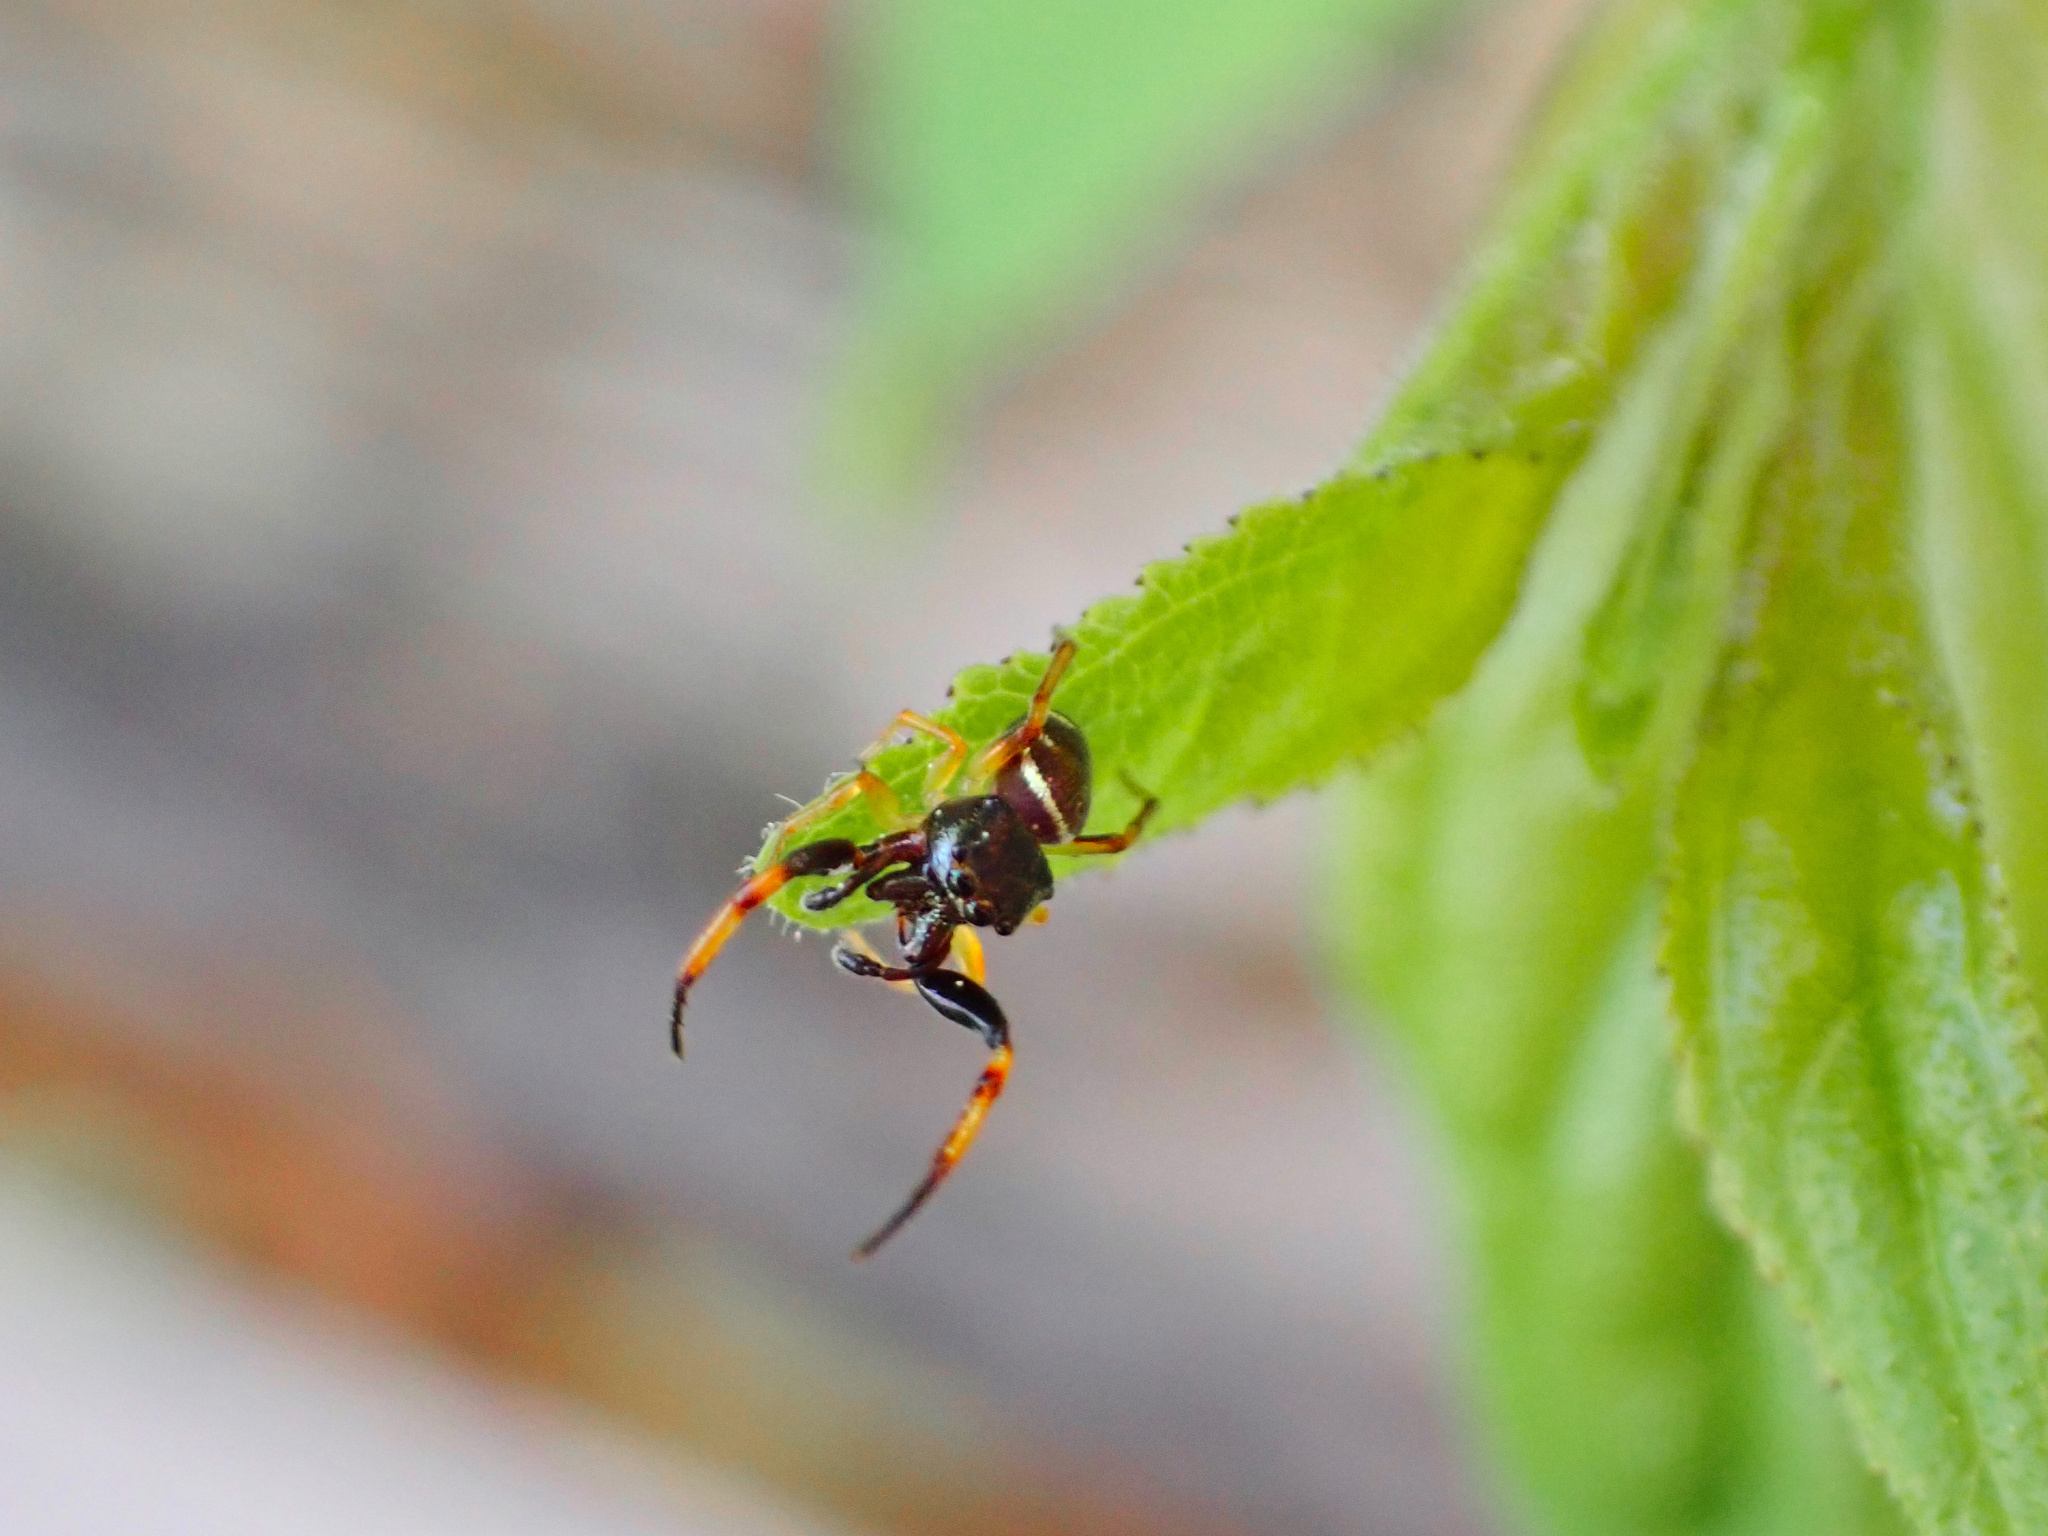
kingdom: Animalia
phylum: Arthropoda
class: Arachnida
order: Araneae
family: Salticidae
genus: Zygoballus
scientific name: Zygoballus rufipes
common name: Jumping spiders
